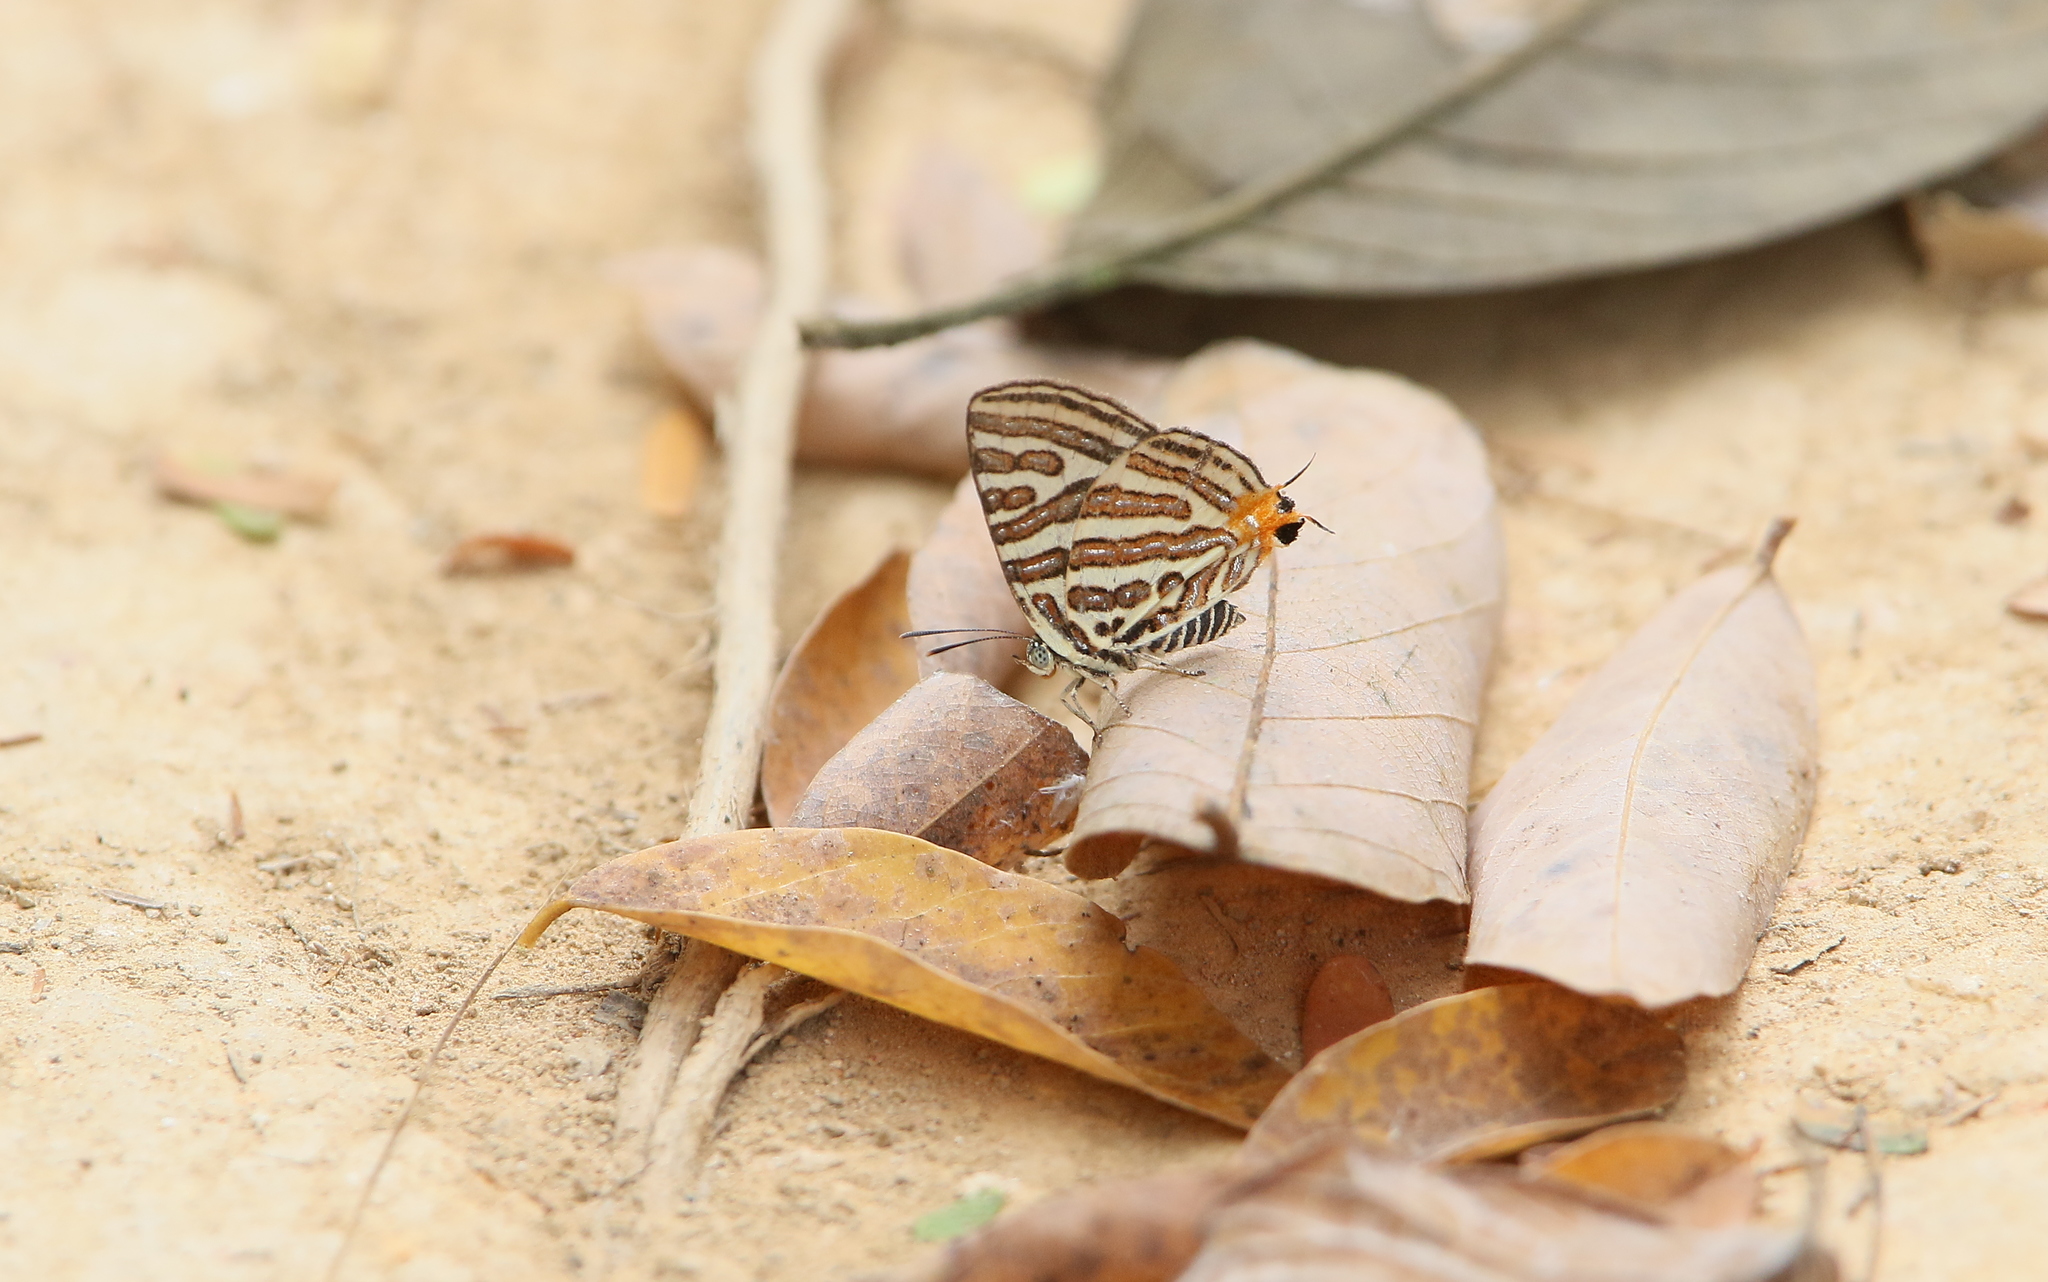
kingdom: Animalia
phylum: Arthropoda
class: Insecta
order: Lepidoptera
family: Lycaenidae
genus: Cigaritis
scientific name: Cigaritis syama
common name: Club silverline
